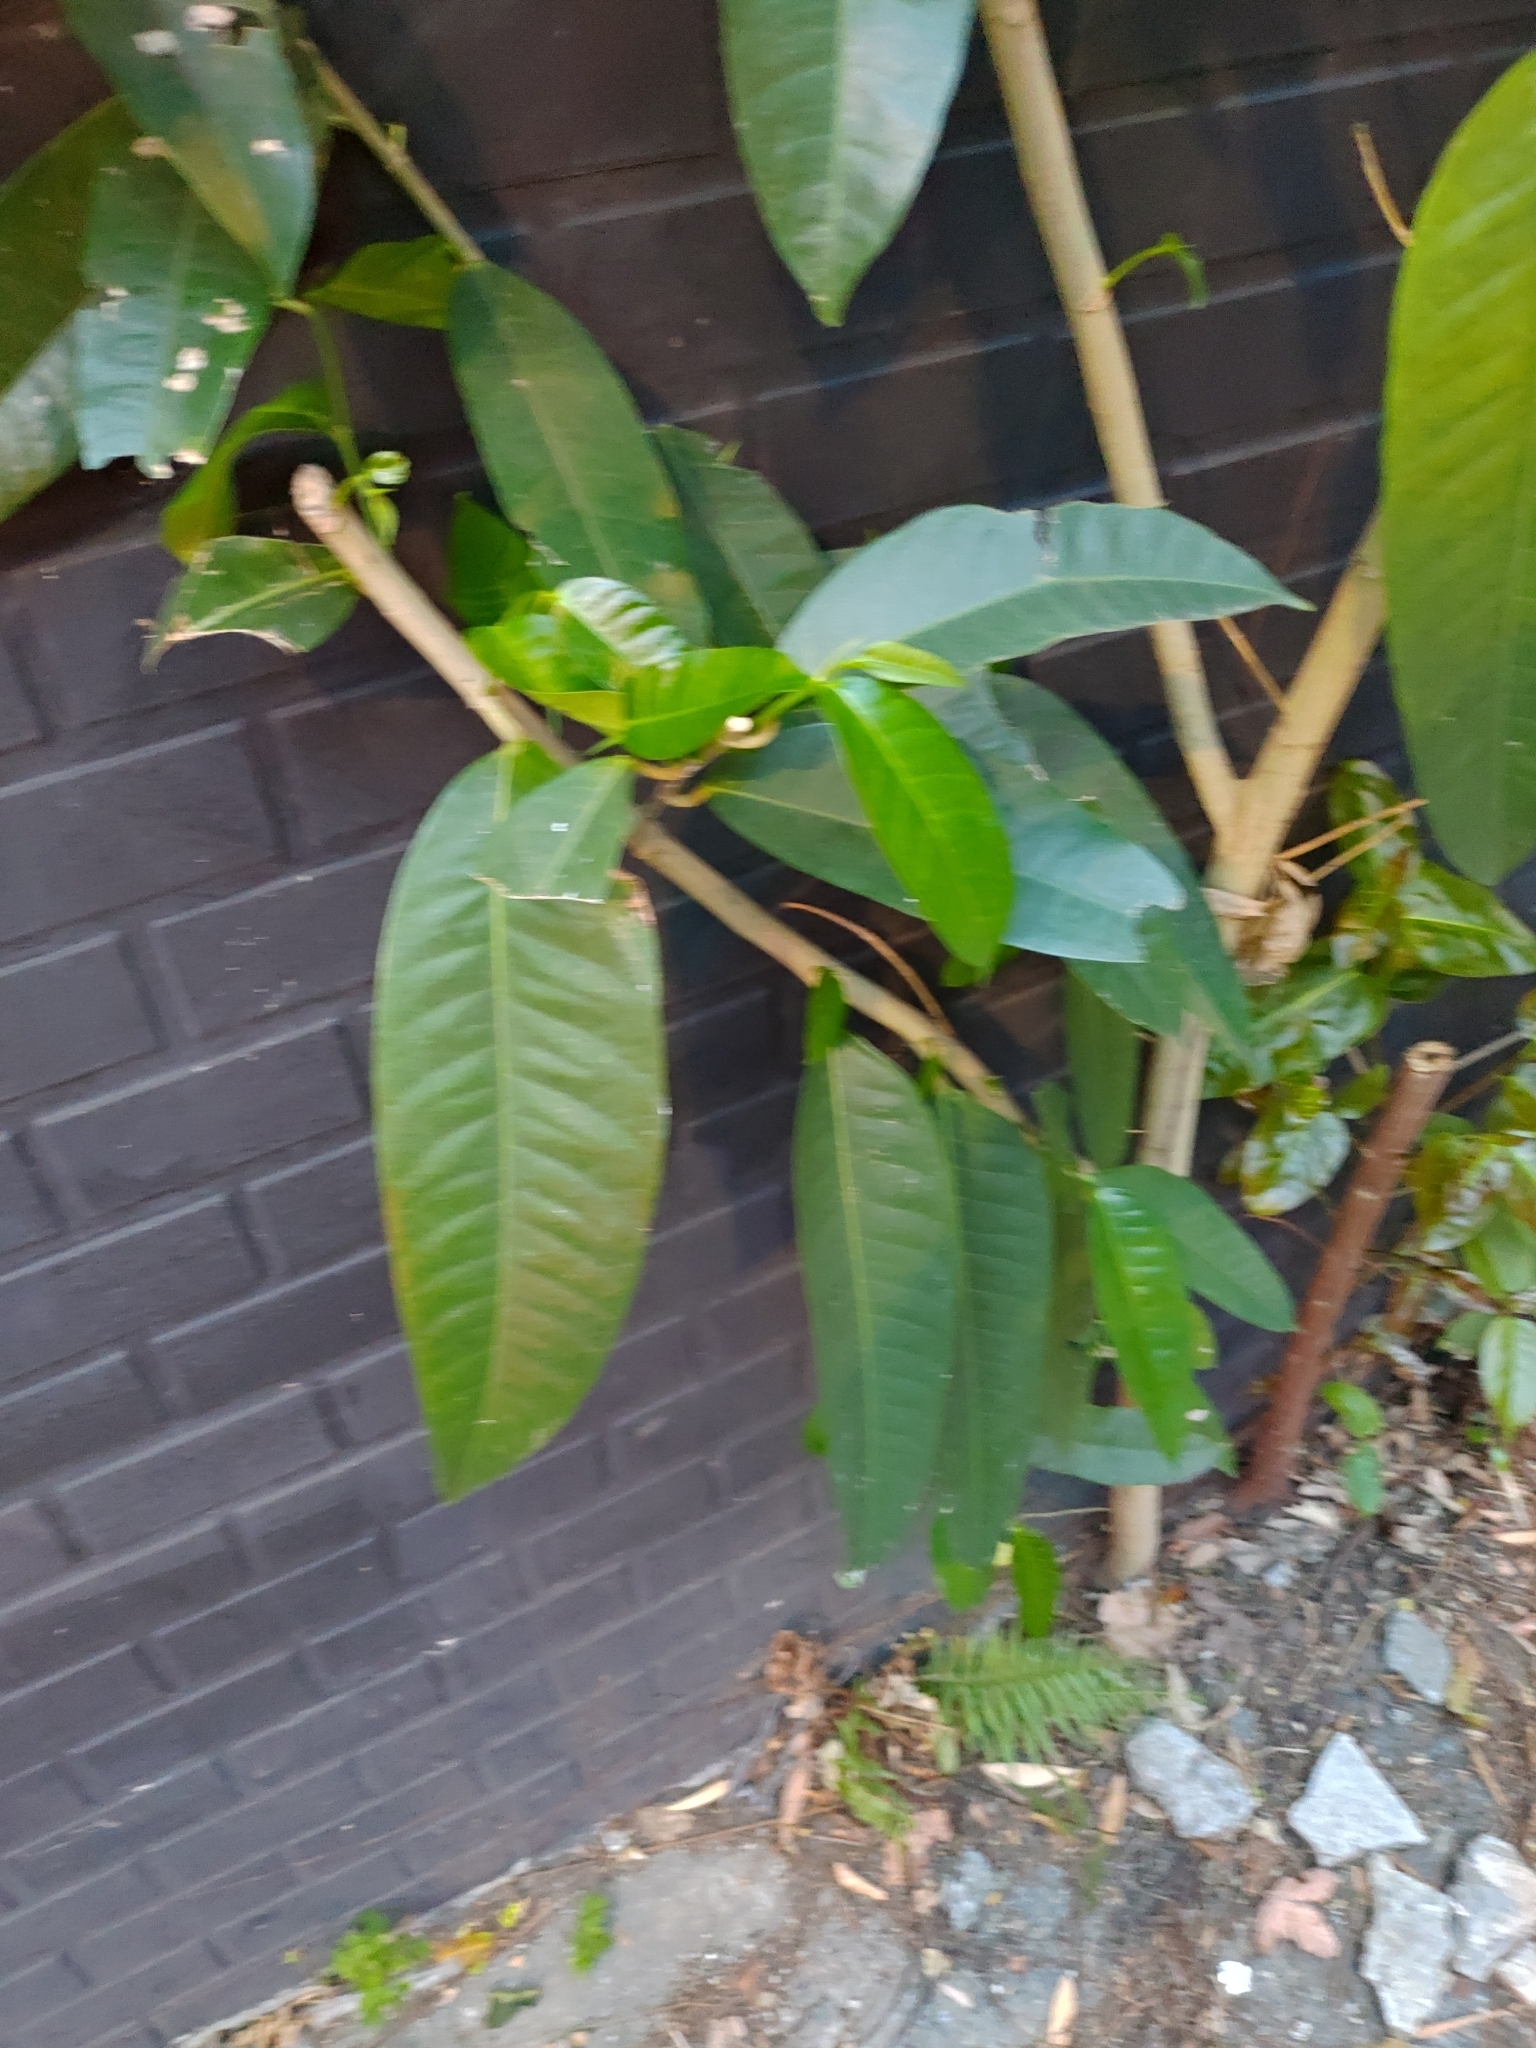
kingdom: Plantae
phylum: Tracheophyta
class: Magnoliopsida
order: Rosales
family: Moraceae
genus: Ficus
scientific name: Ficus virgata
